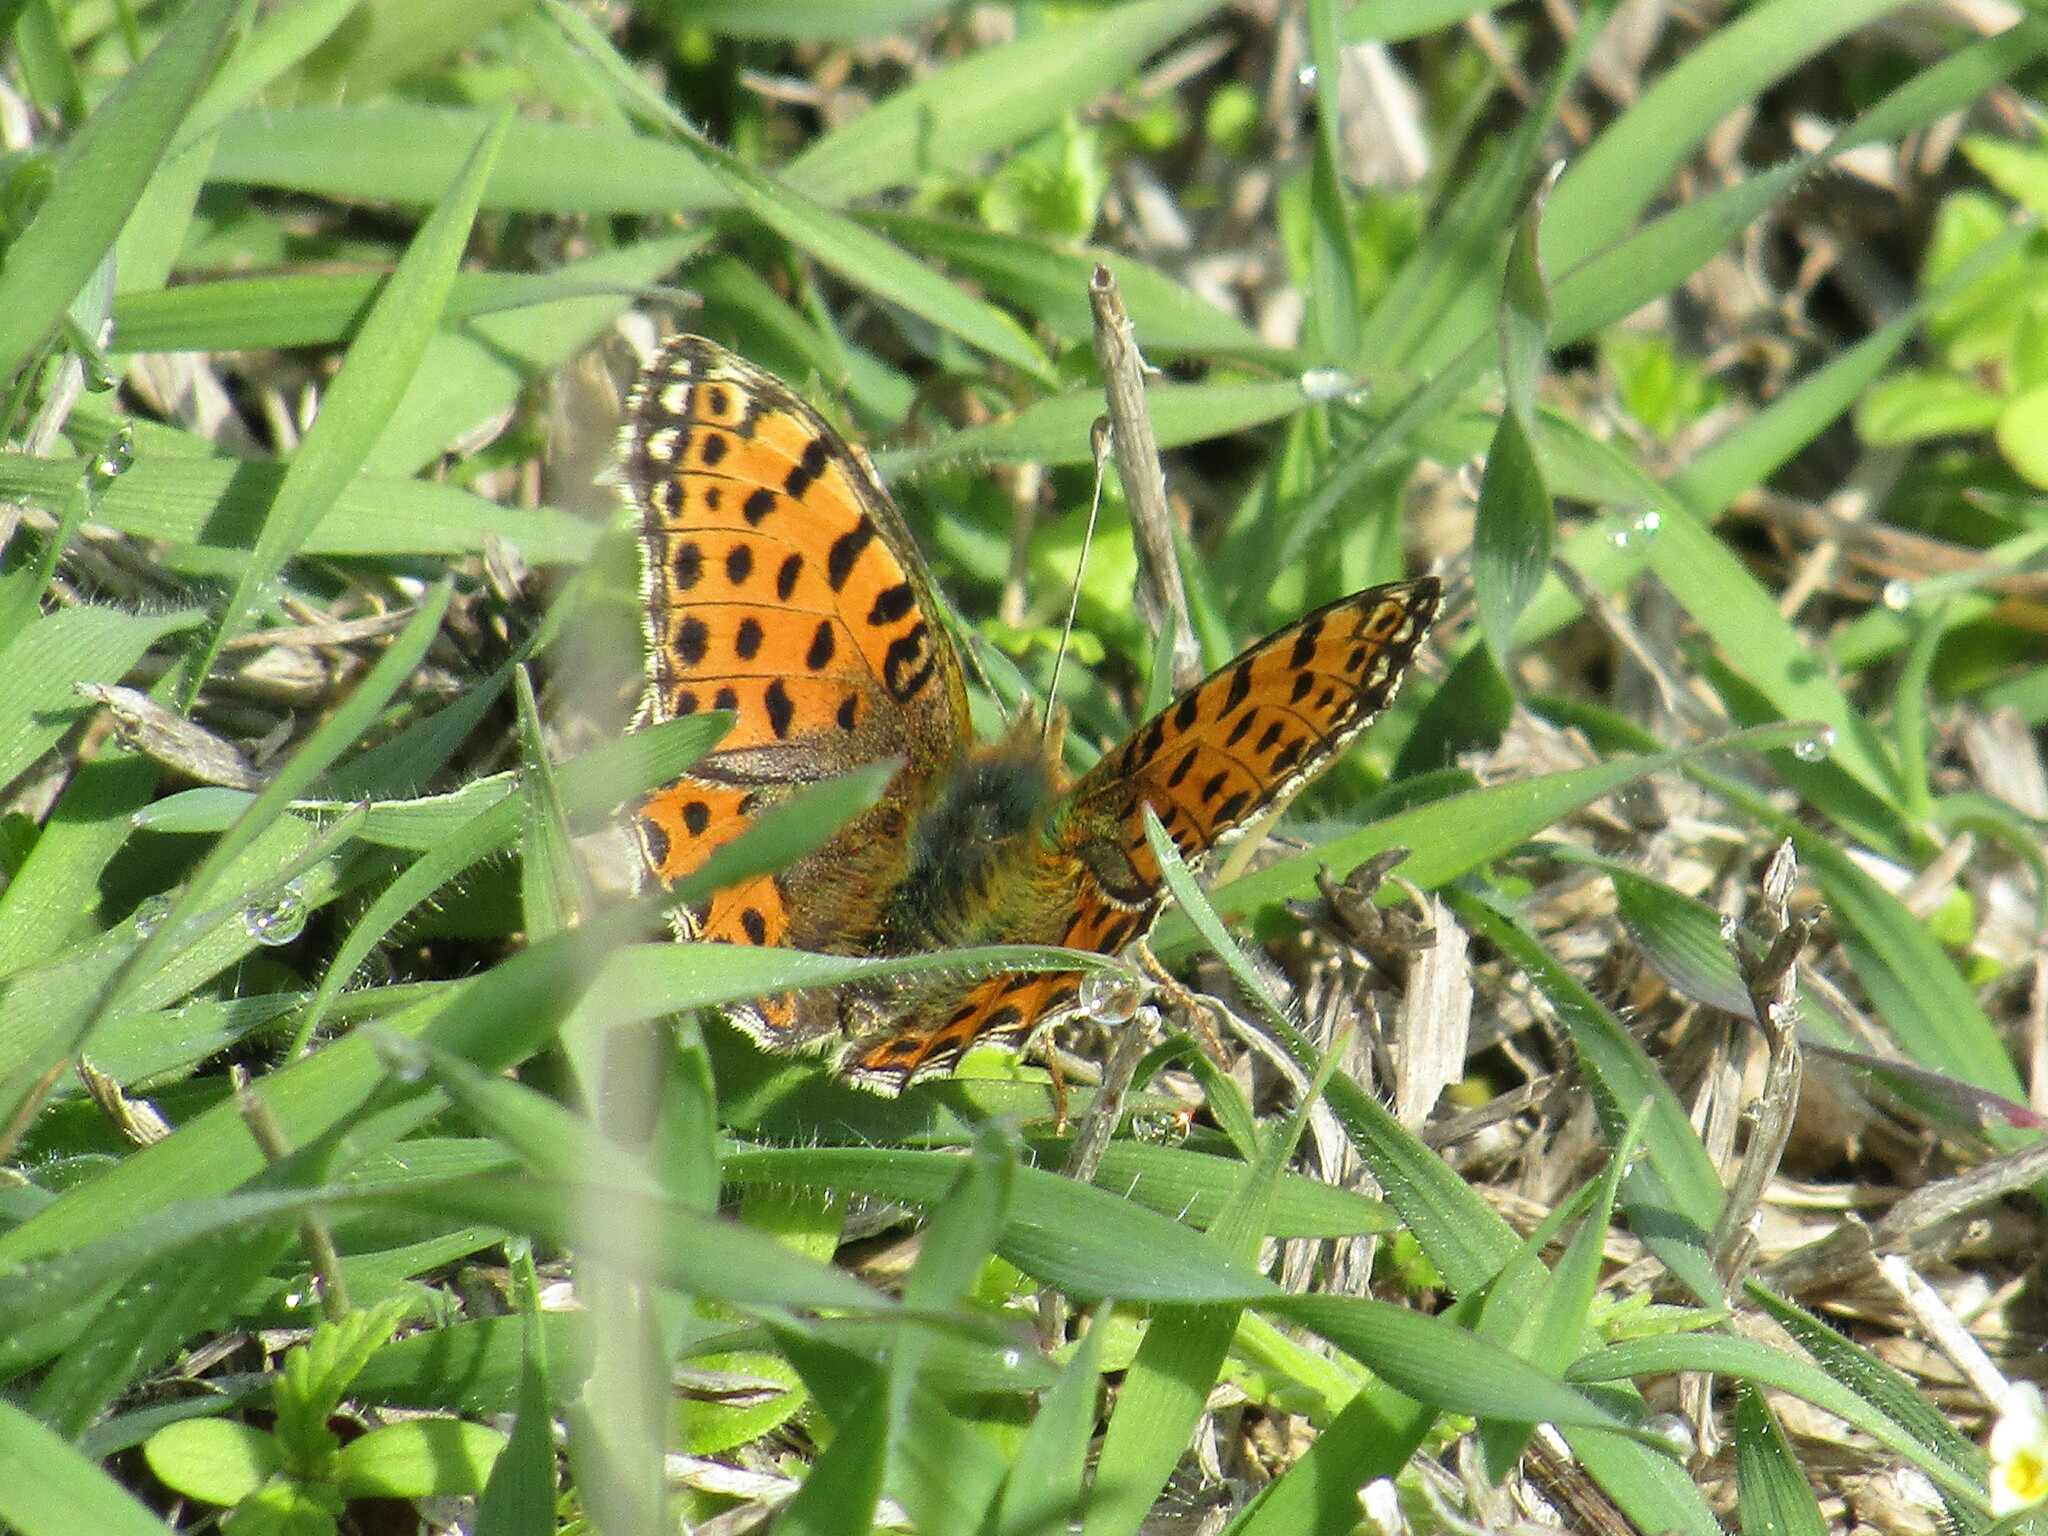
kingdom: Animalia
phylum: Arthropoda
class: Insecta
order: Lepidoptera
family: Nymphalidae
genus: Issoria
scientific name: Issoria lathonia
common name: Queen of spain fritillary
